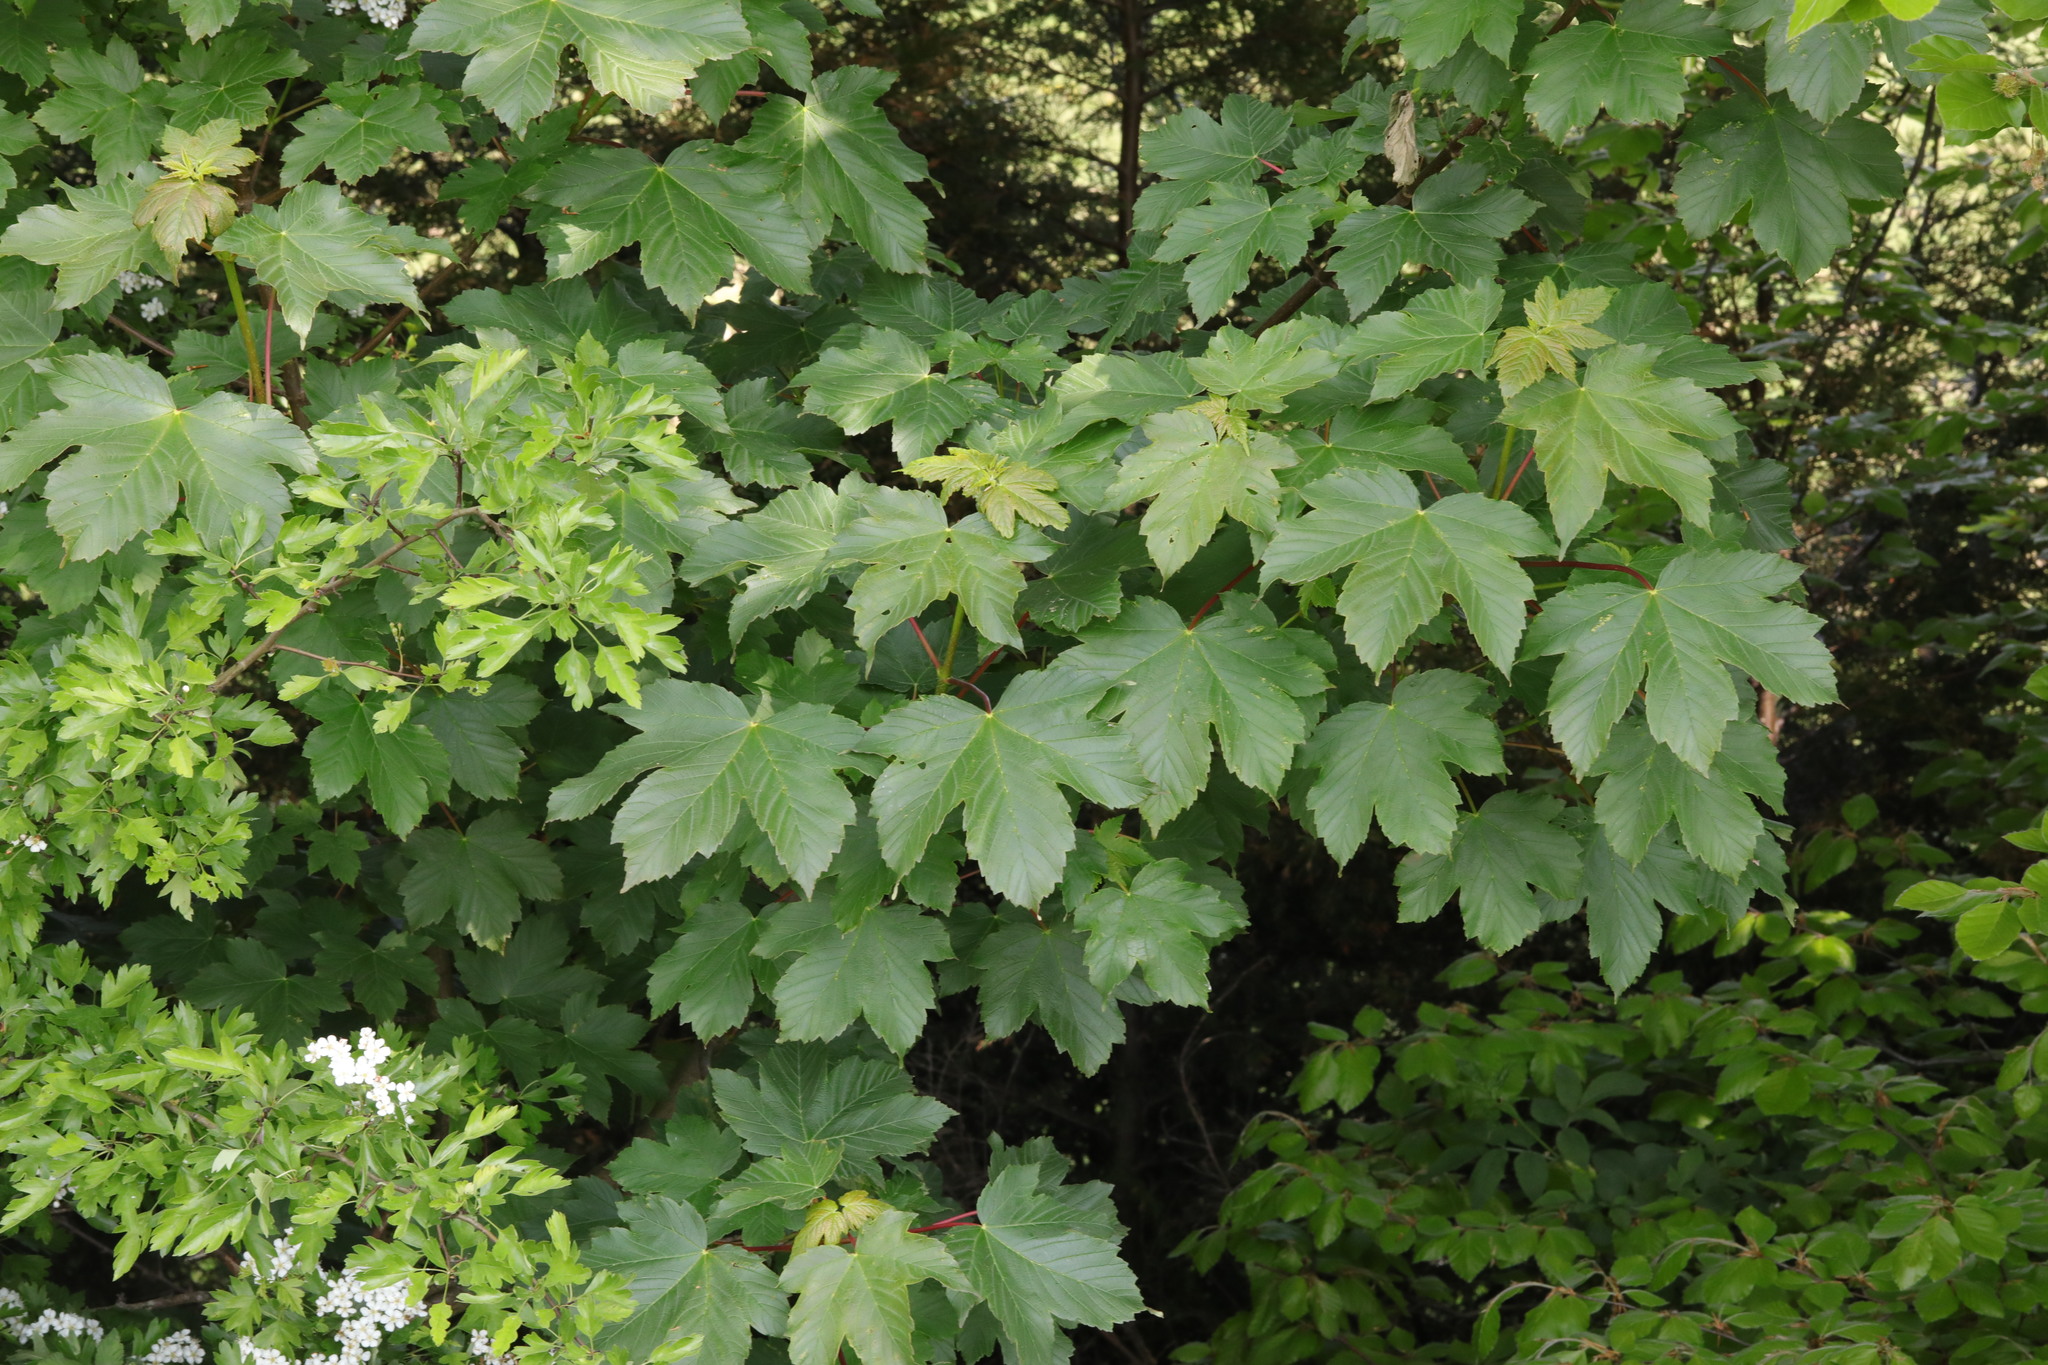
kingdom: Plantae
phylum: Tracheophyta
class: Magnoliopsida
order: Sapindales
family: Sapindaceae
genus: Acer
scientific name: Acer pseudoplatanus
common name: Sycamore
